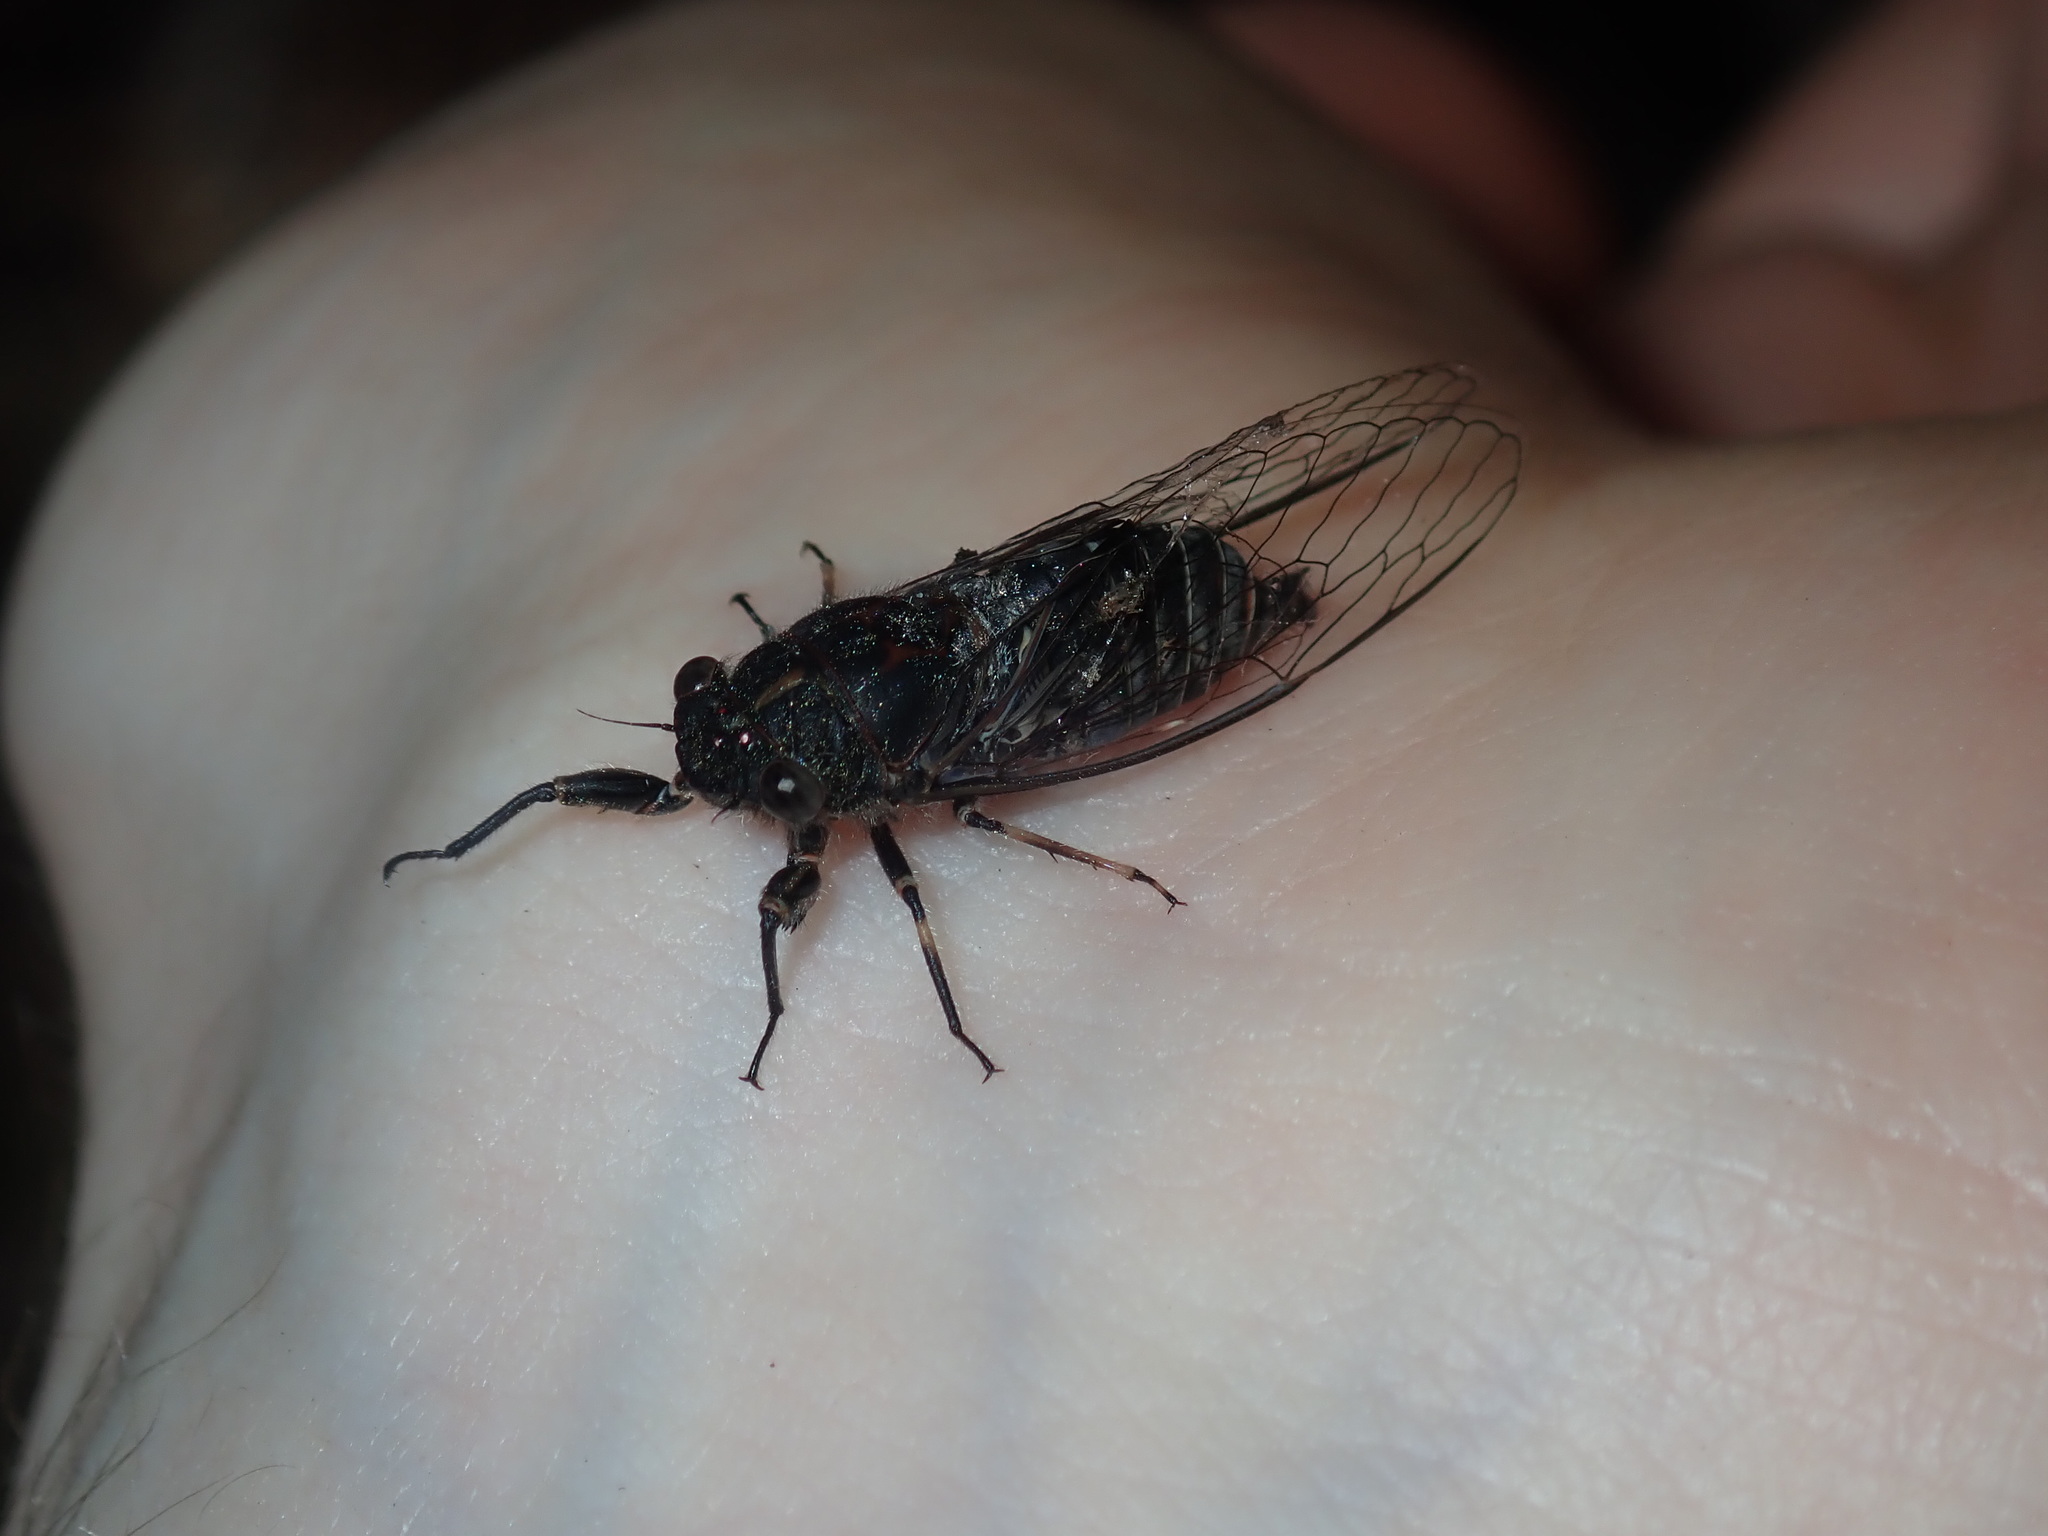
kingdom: Animalia
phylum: Arthropoda
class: Insecta
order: Hemiptera
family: Cicadidae
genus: Atrapsalta
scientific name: Atrapsalta corticina
